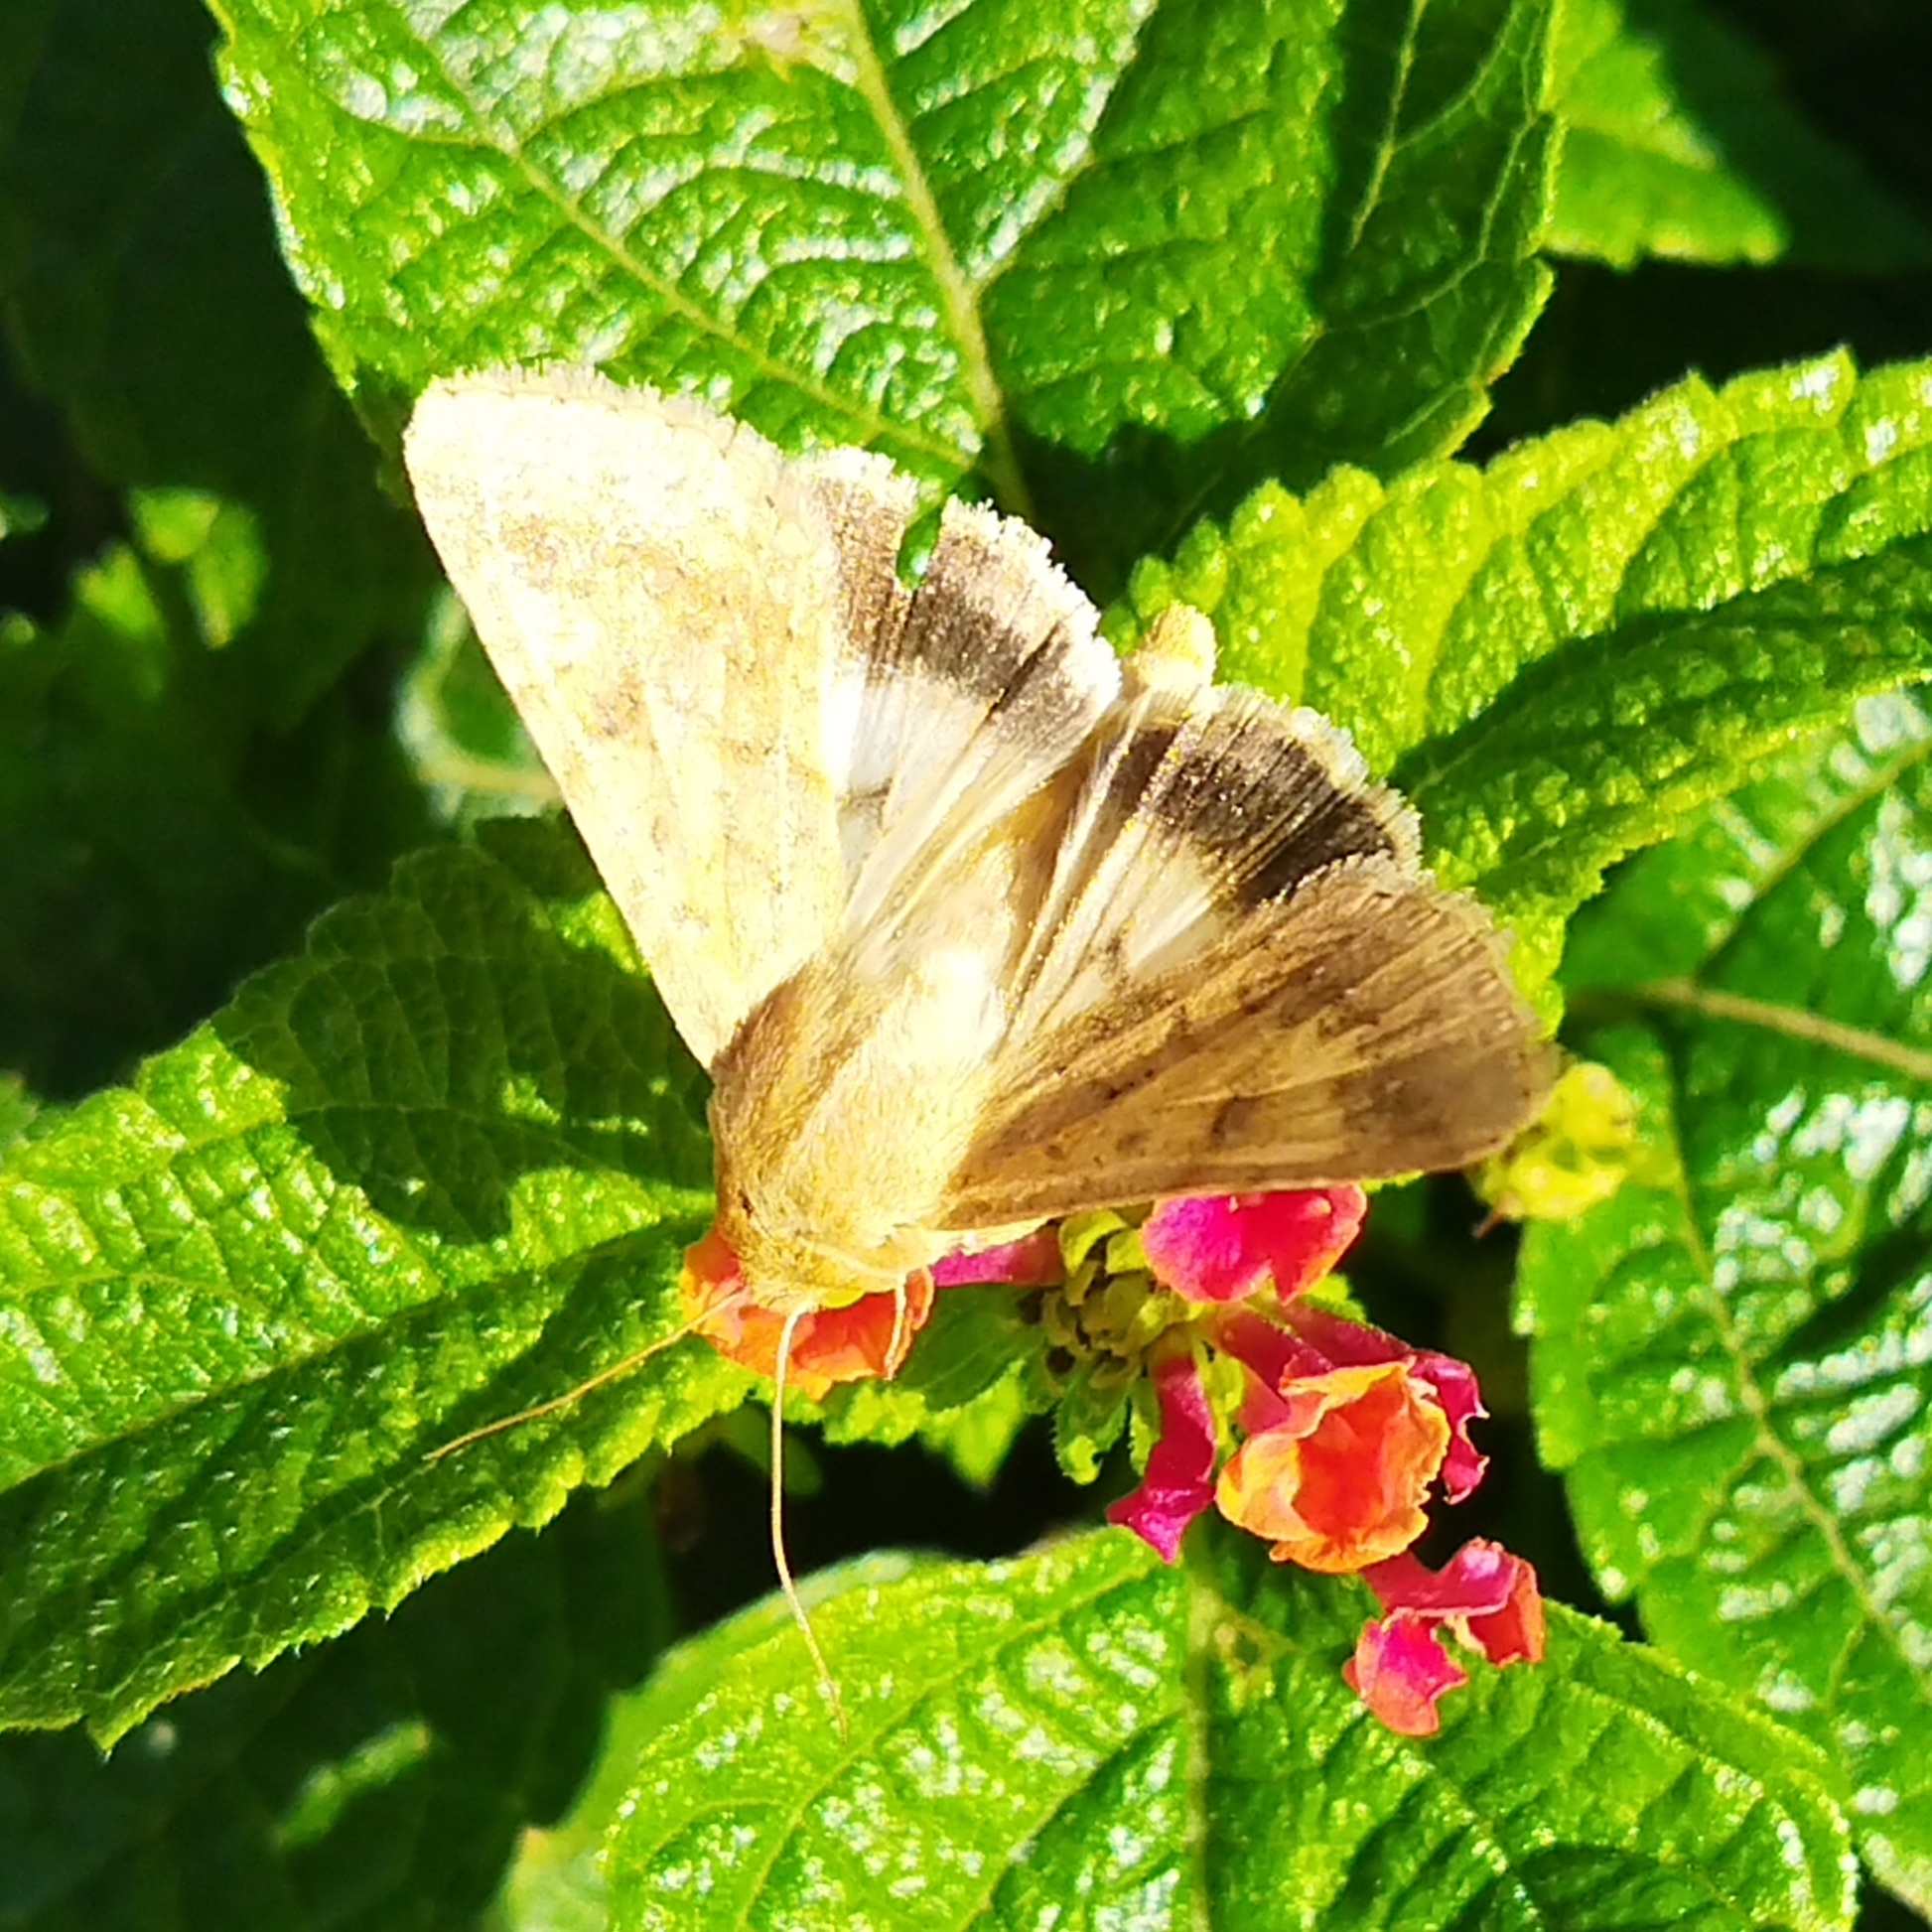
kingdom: Animalia
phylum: Arthropoda
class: Insecta
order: Lepidoptera
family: Noctuidae
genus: Helicoverpa
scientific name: Helicoverpa armigera
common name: Cotton bollworm
